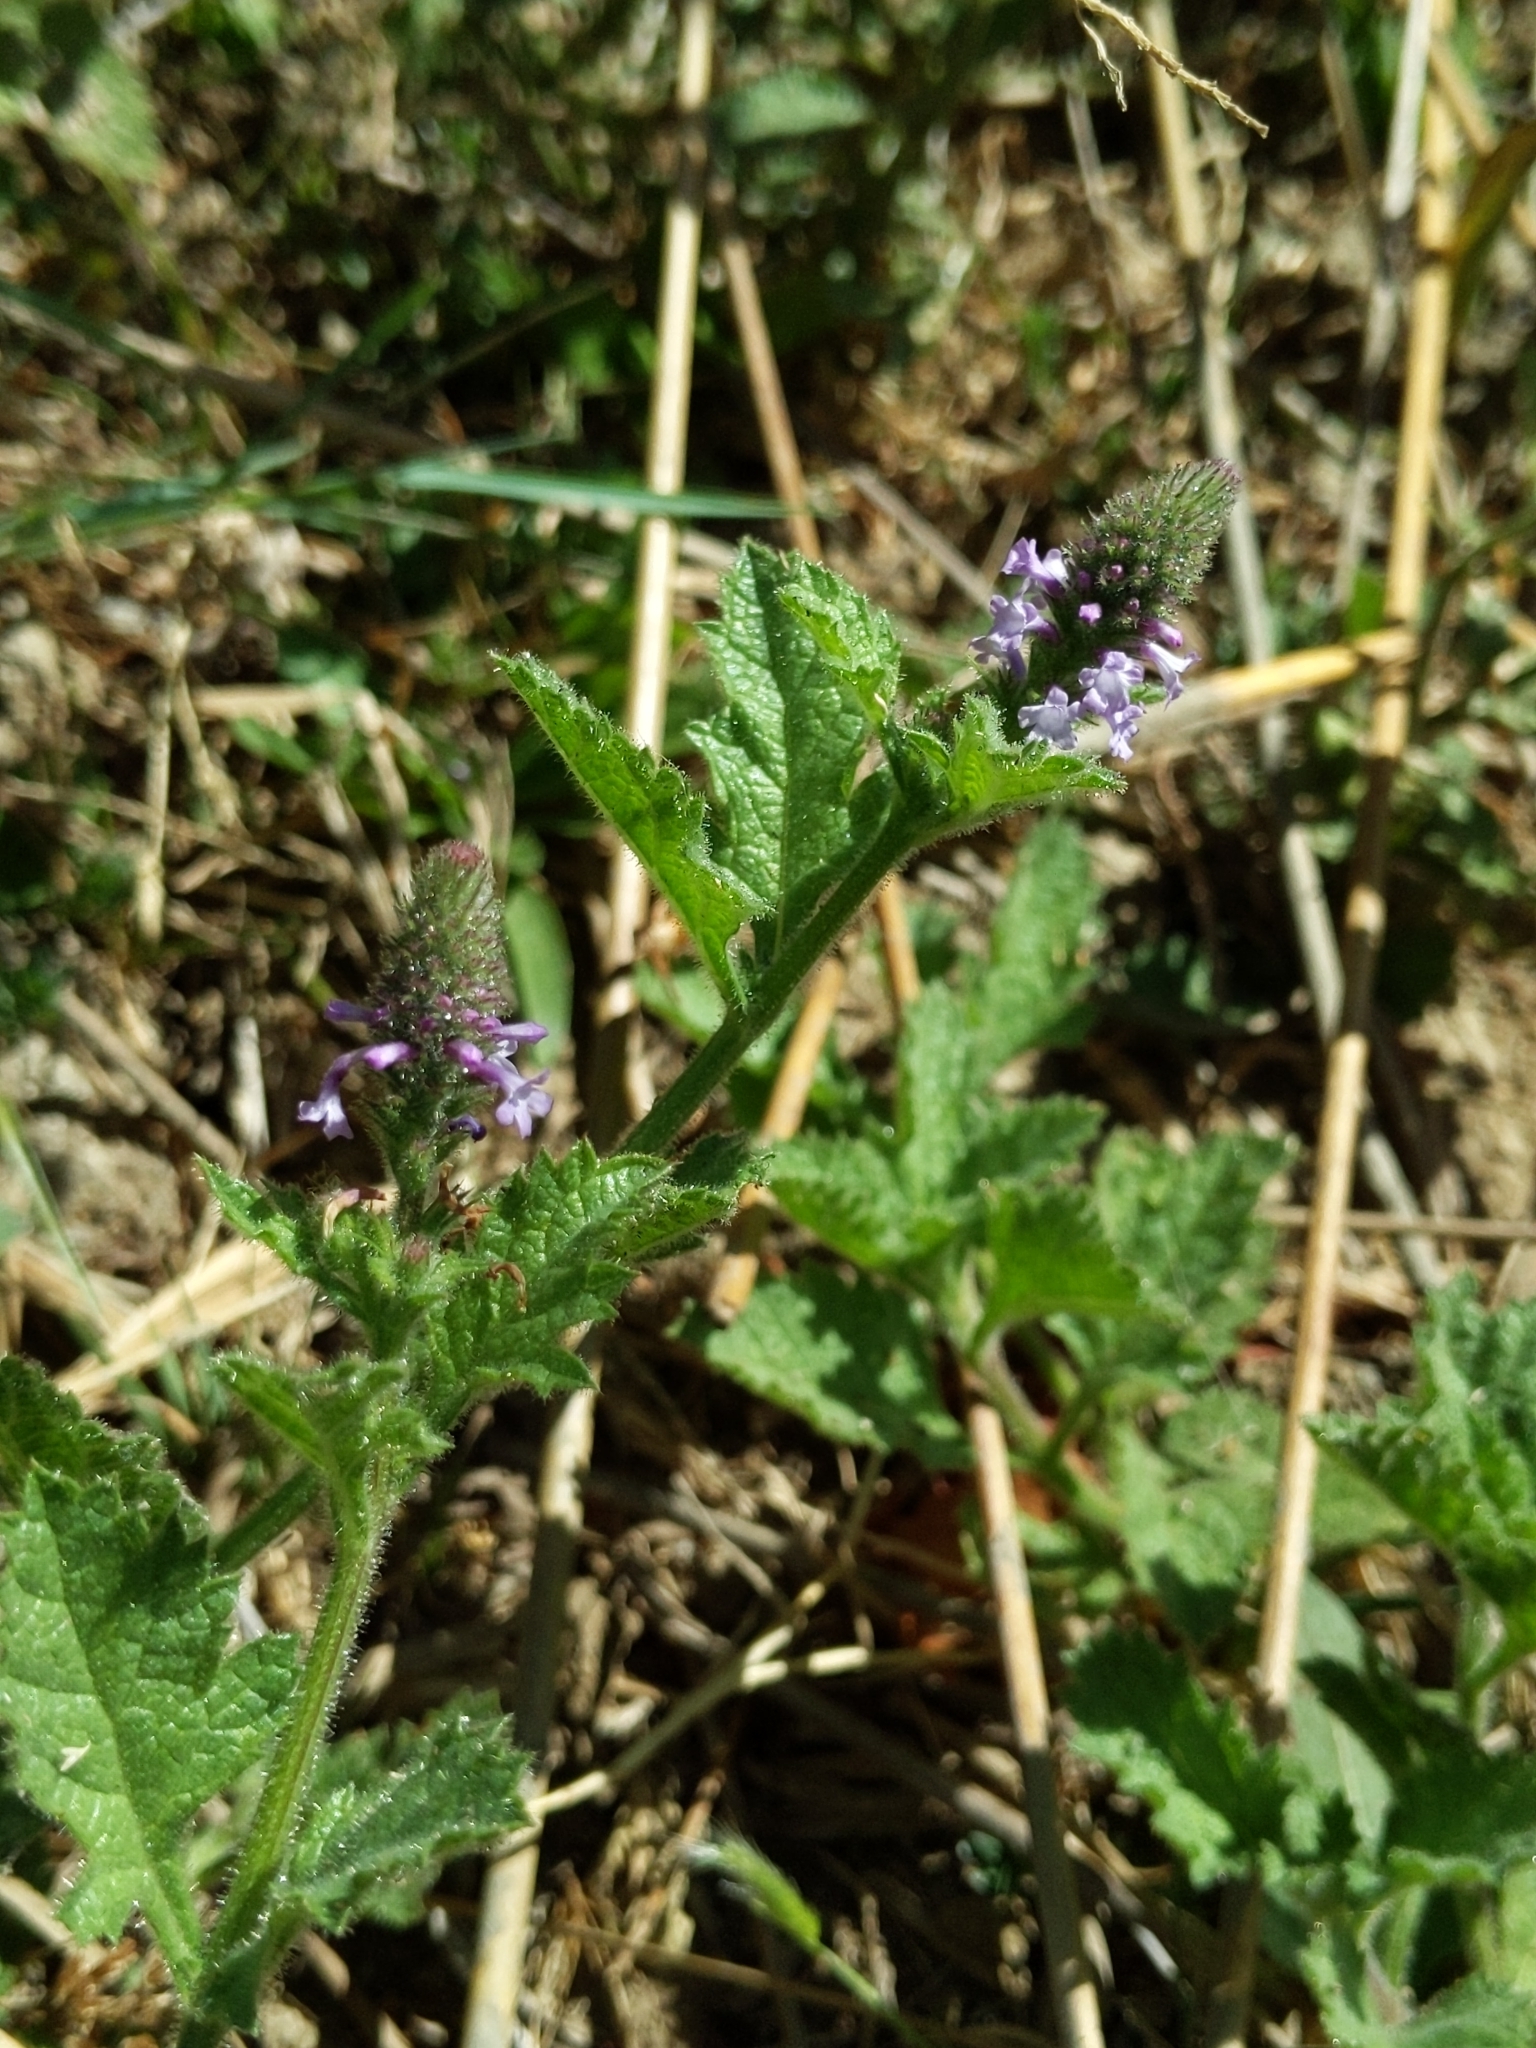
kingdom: Plantae
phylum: Tracheophyta
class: Magnoliopsida
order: Lamiales
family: Verbenaceae
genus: Verbena
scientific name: Verbena lasiostachys
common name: Vervain
